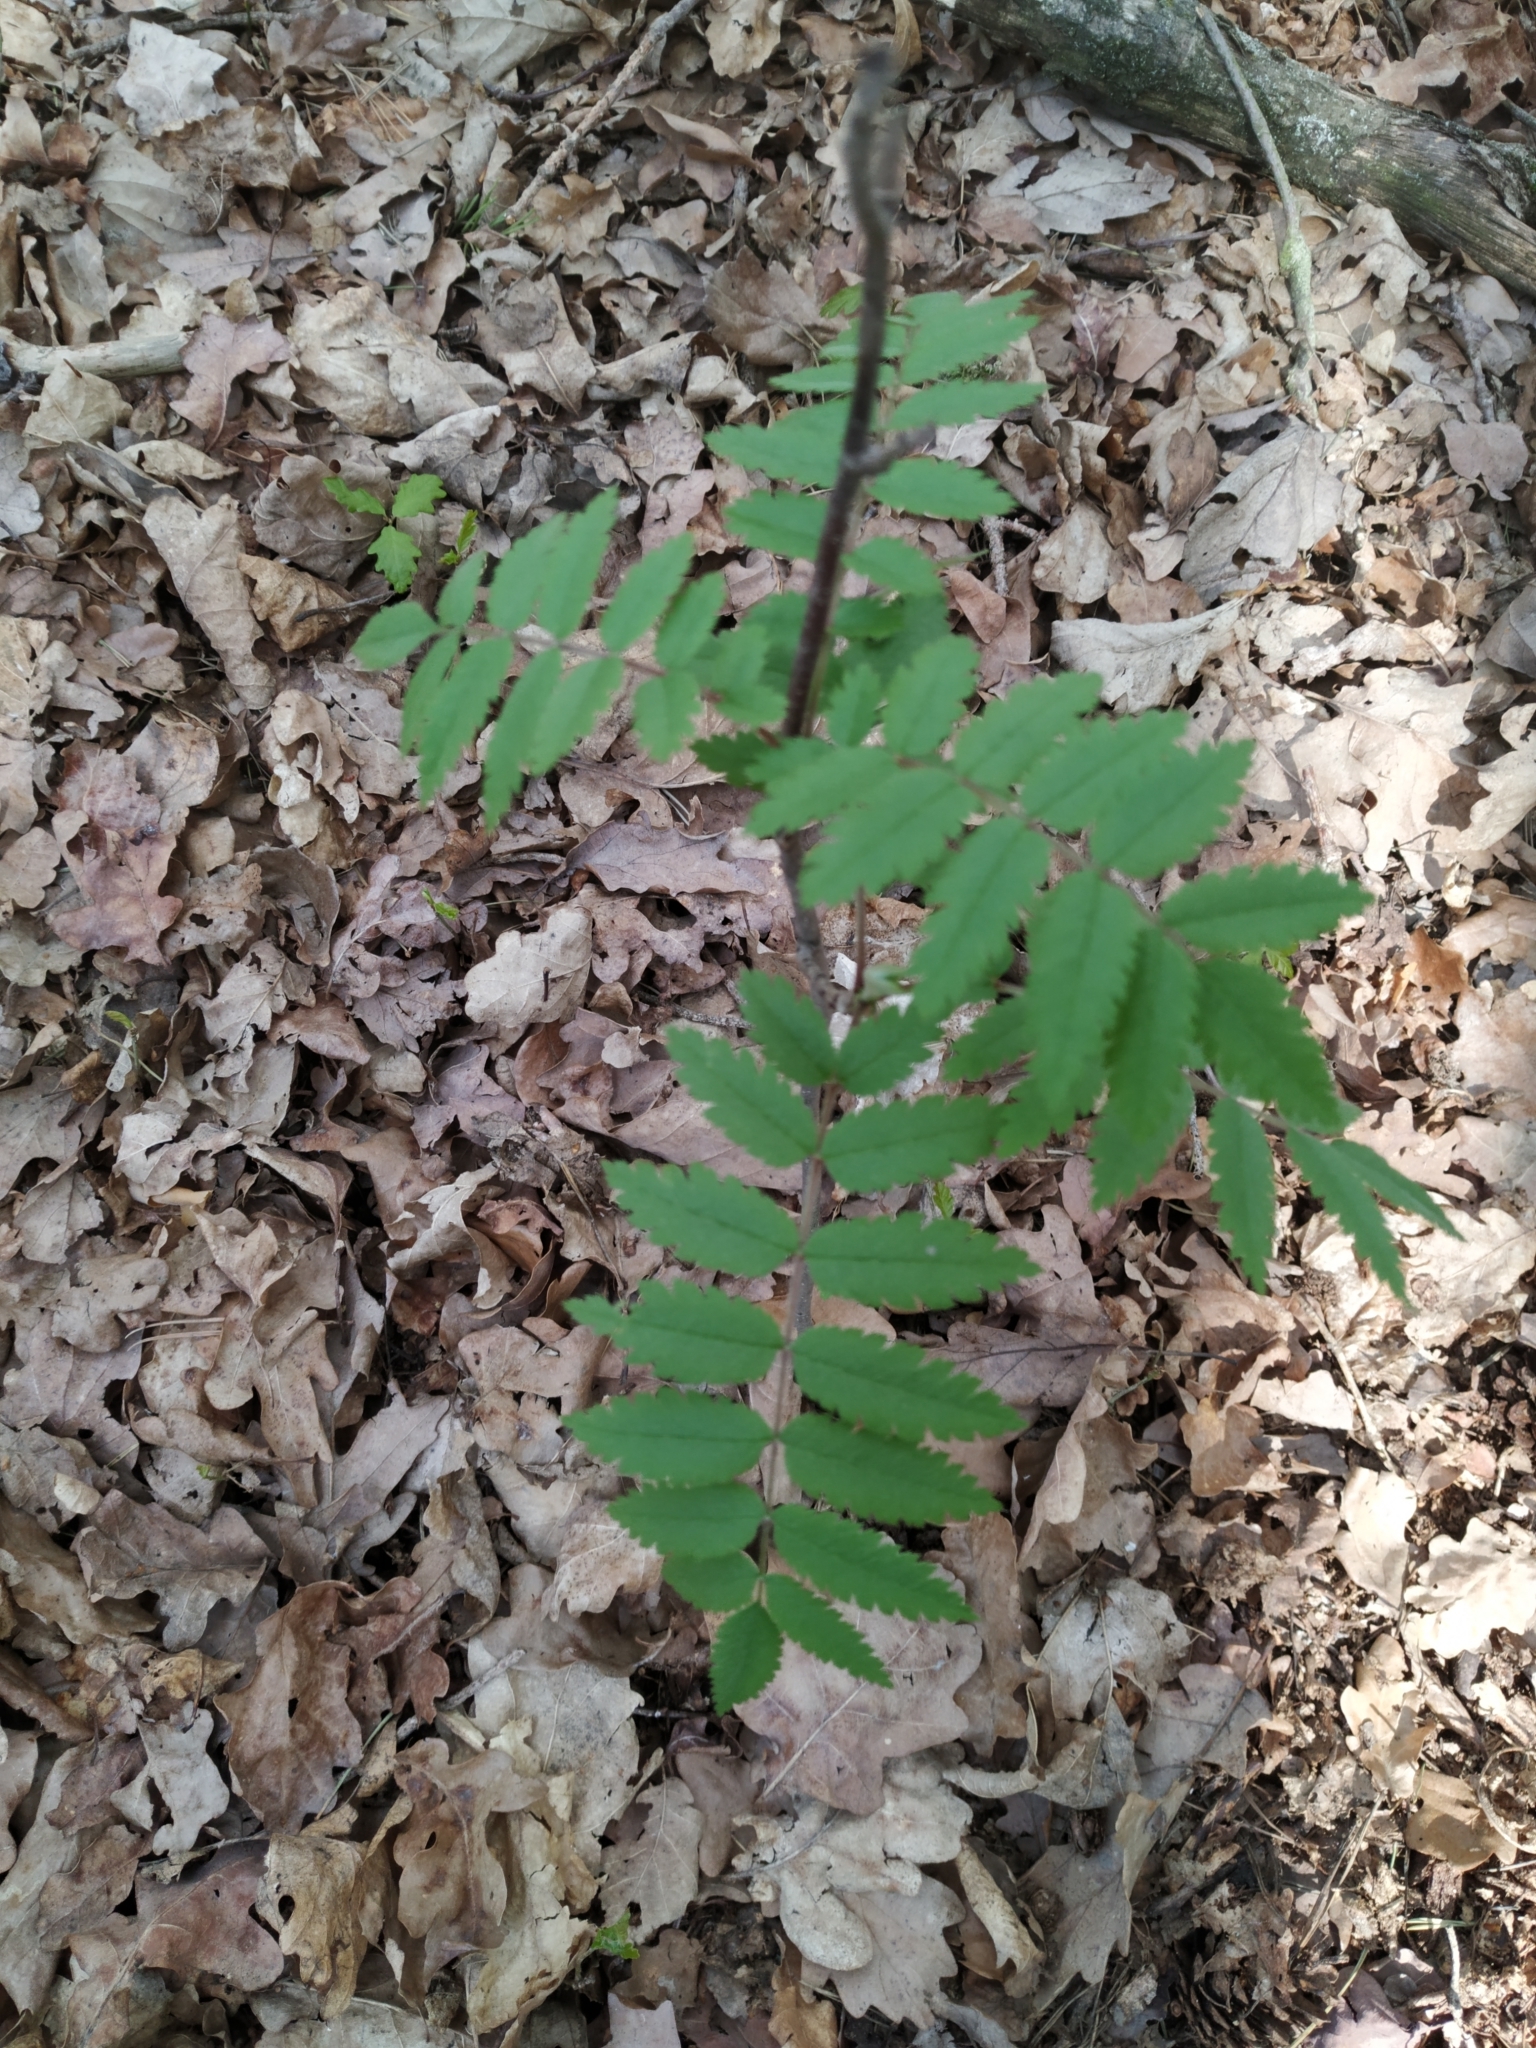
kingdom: Plantae
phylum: Tracheophyta
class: Magnoliopsida
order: Rosales
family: Rosaceae
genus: Sorbus
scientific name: Sorbus aucuparia
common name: Rowan
